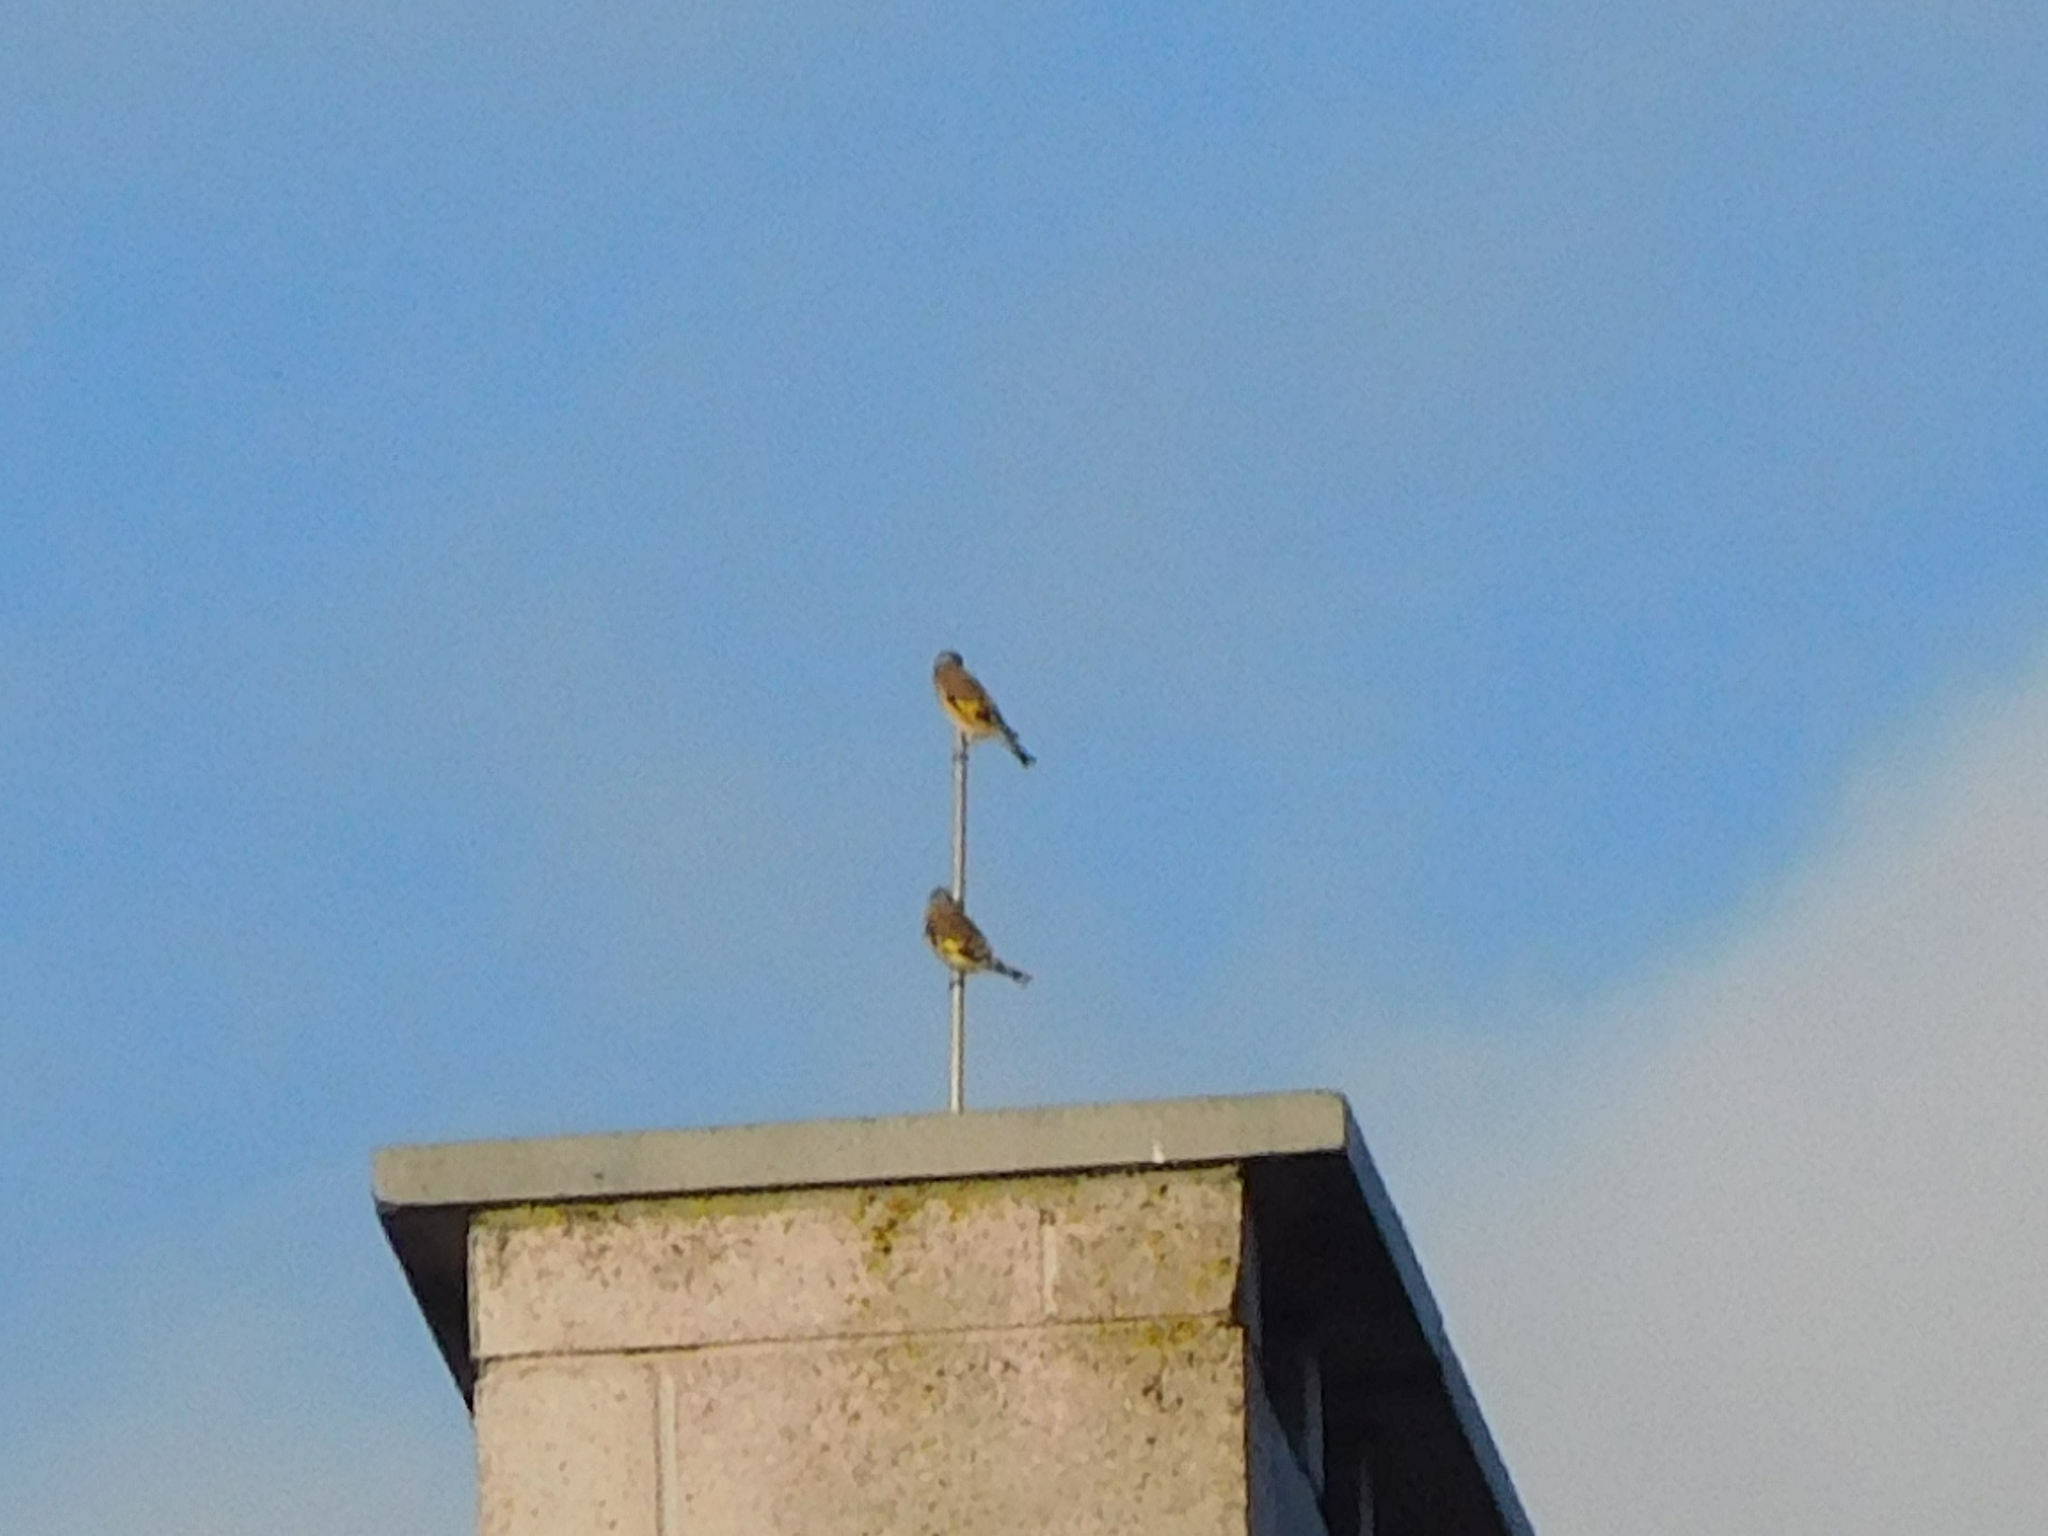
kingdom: Animalia
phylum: Chordata
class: Aves
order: Passeriformes
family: Fringillidae
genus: Carduelis
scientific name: Carduelis carduelis
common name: European goldfinch
